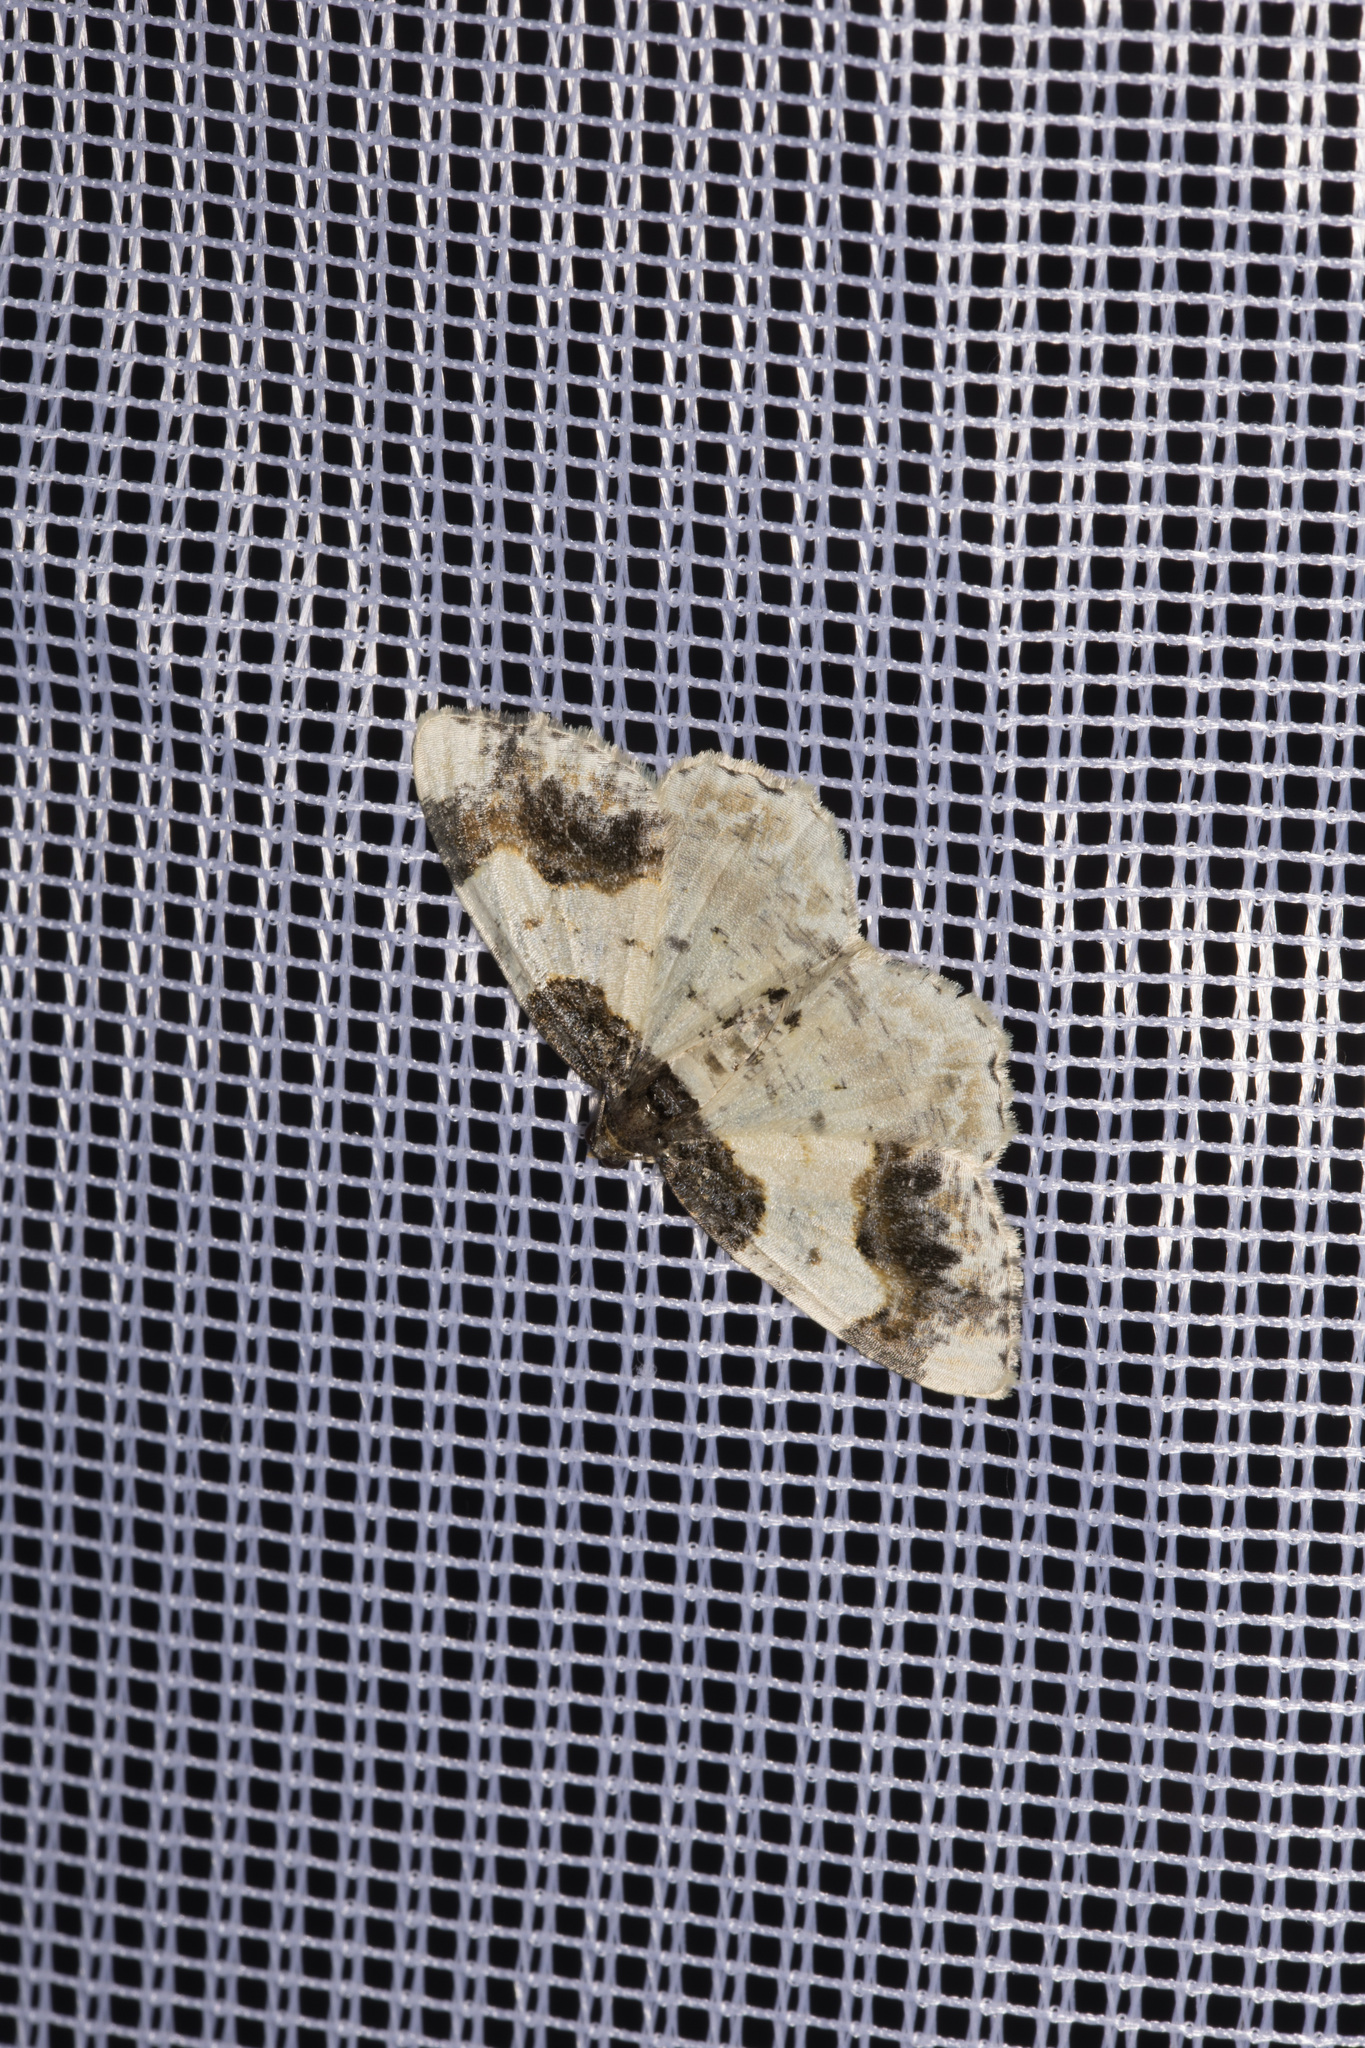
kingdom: Animalia
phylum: Arthropoda
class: Insecta
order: Lepidoptera
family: Geometridae
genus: Ligdia
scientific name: Ligdia adustata
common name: Scorched carpet
